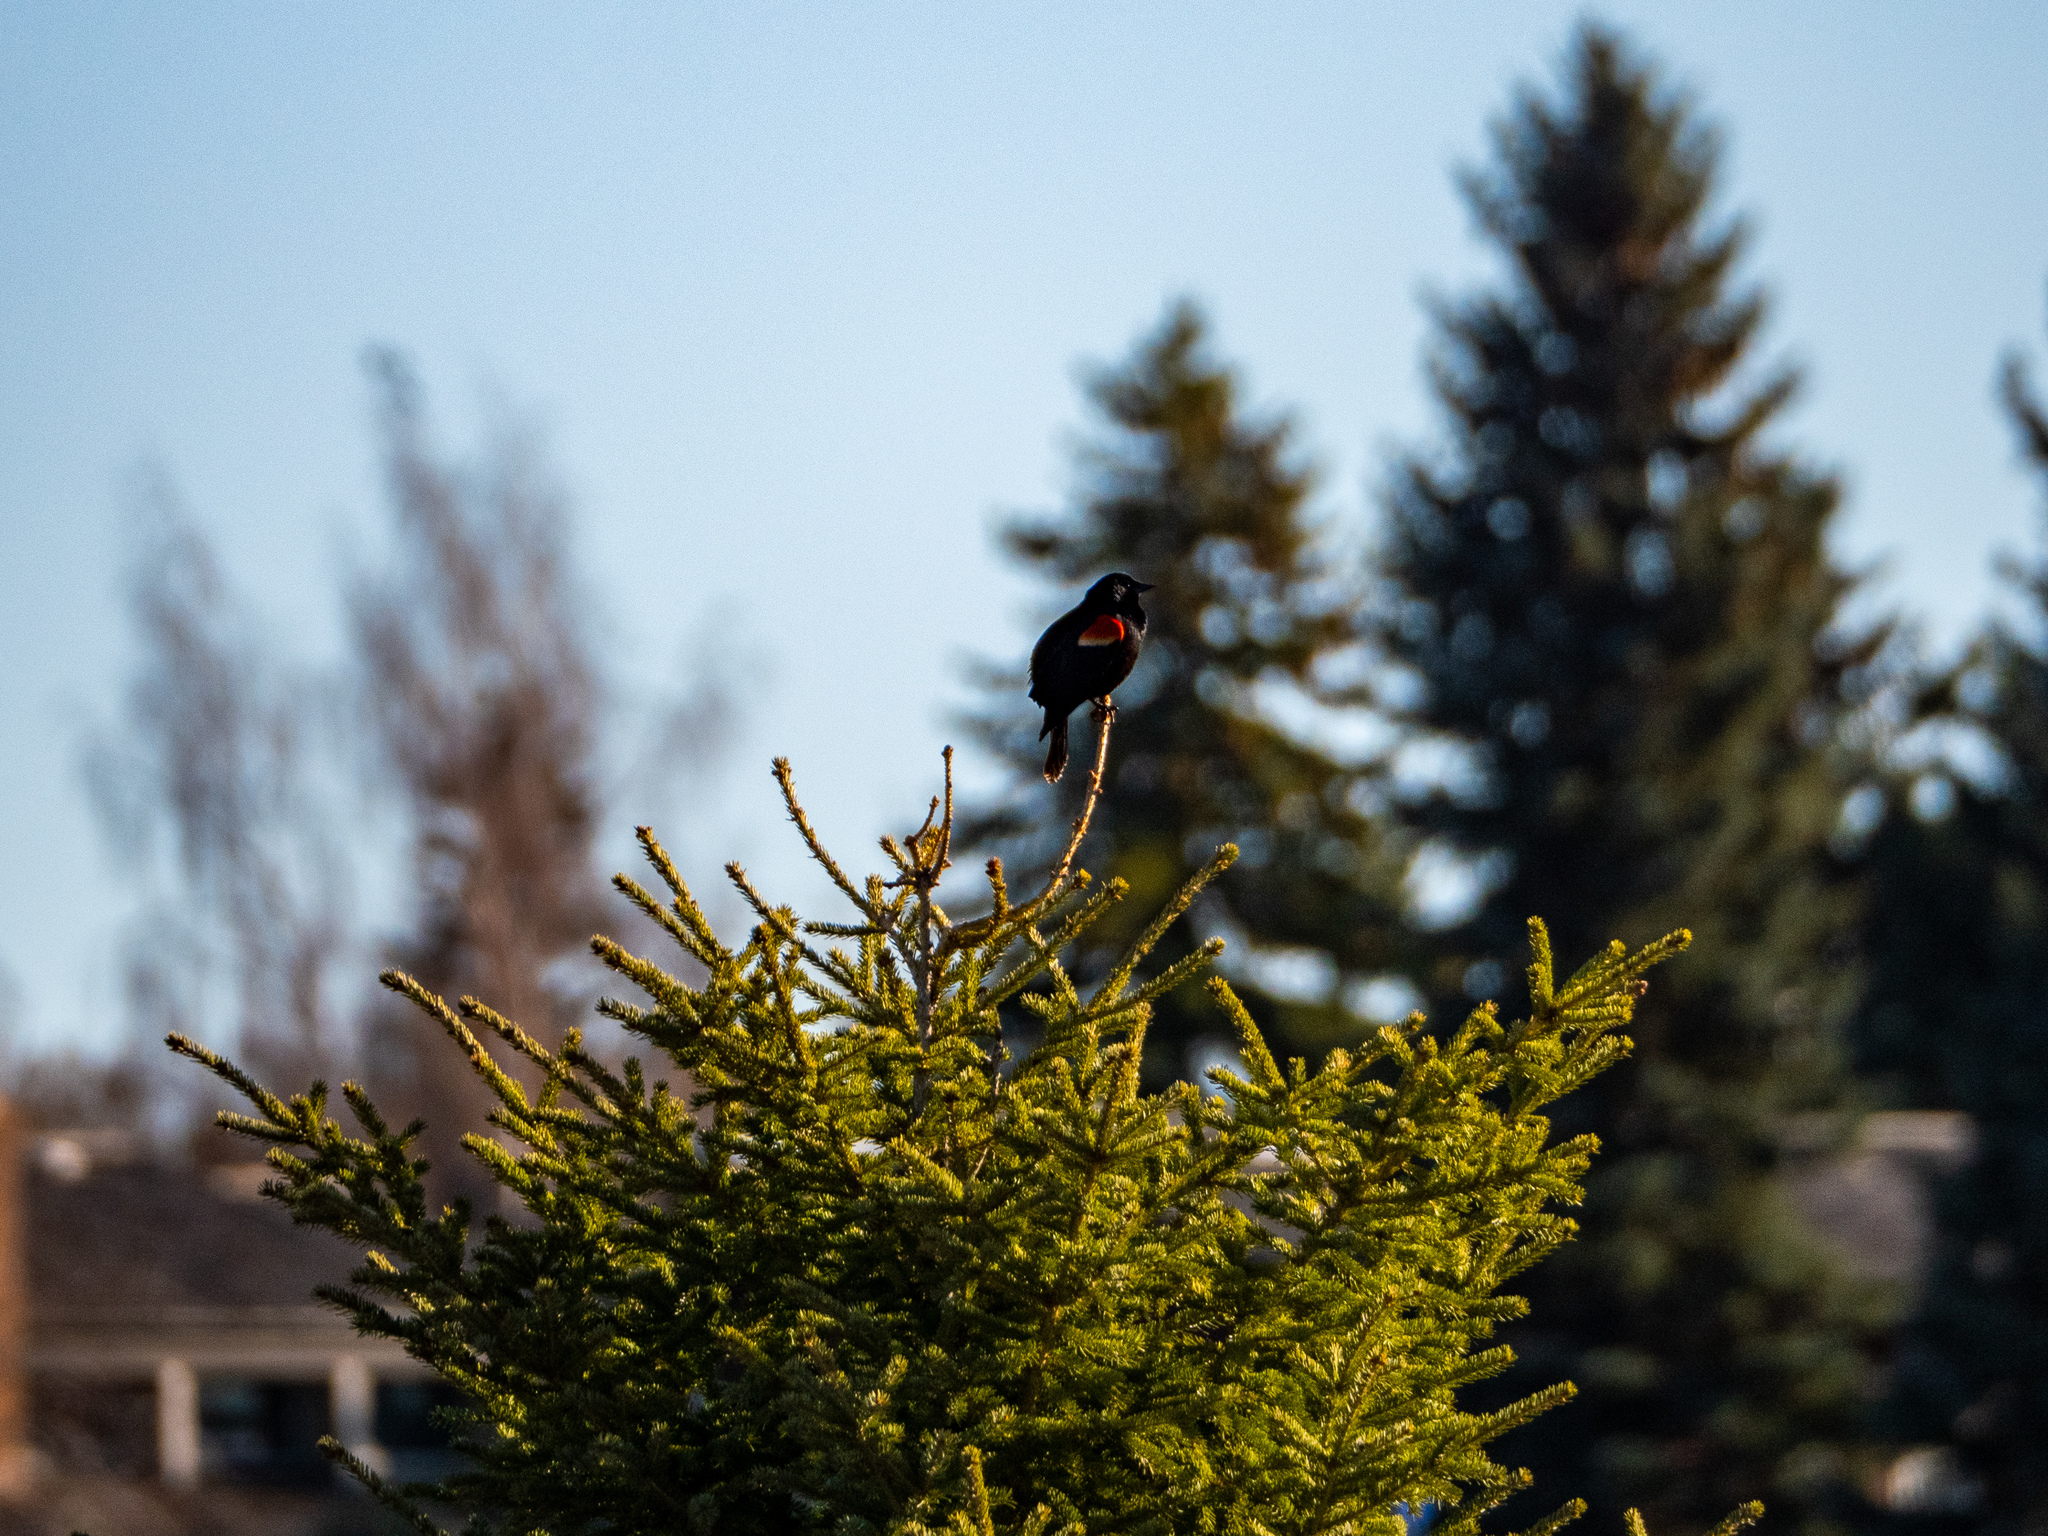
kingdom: Animalia
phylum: Chordata
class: Aves
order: Passeriformes
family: Icteridae
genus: Agelaius
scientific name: Agelaius phoeniceus
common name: Red-winged blackbird
